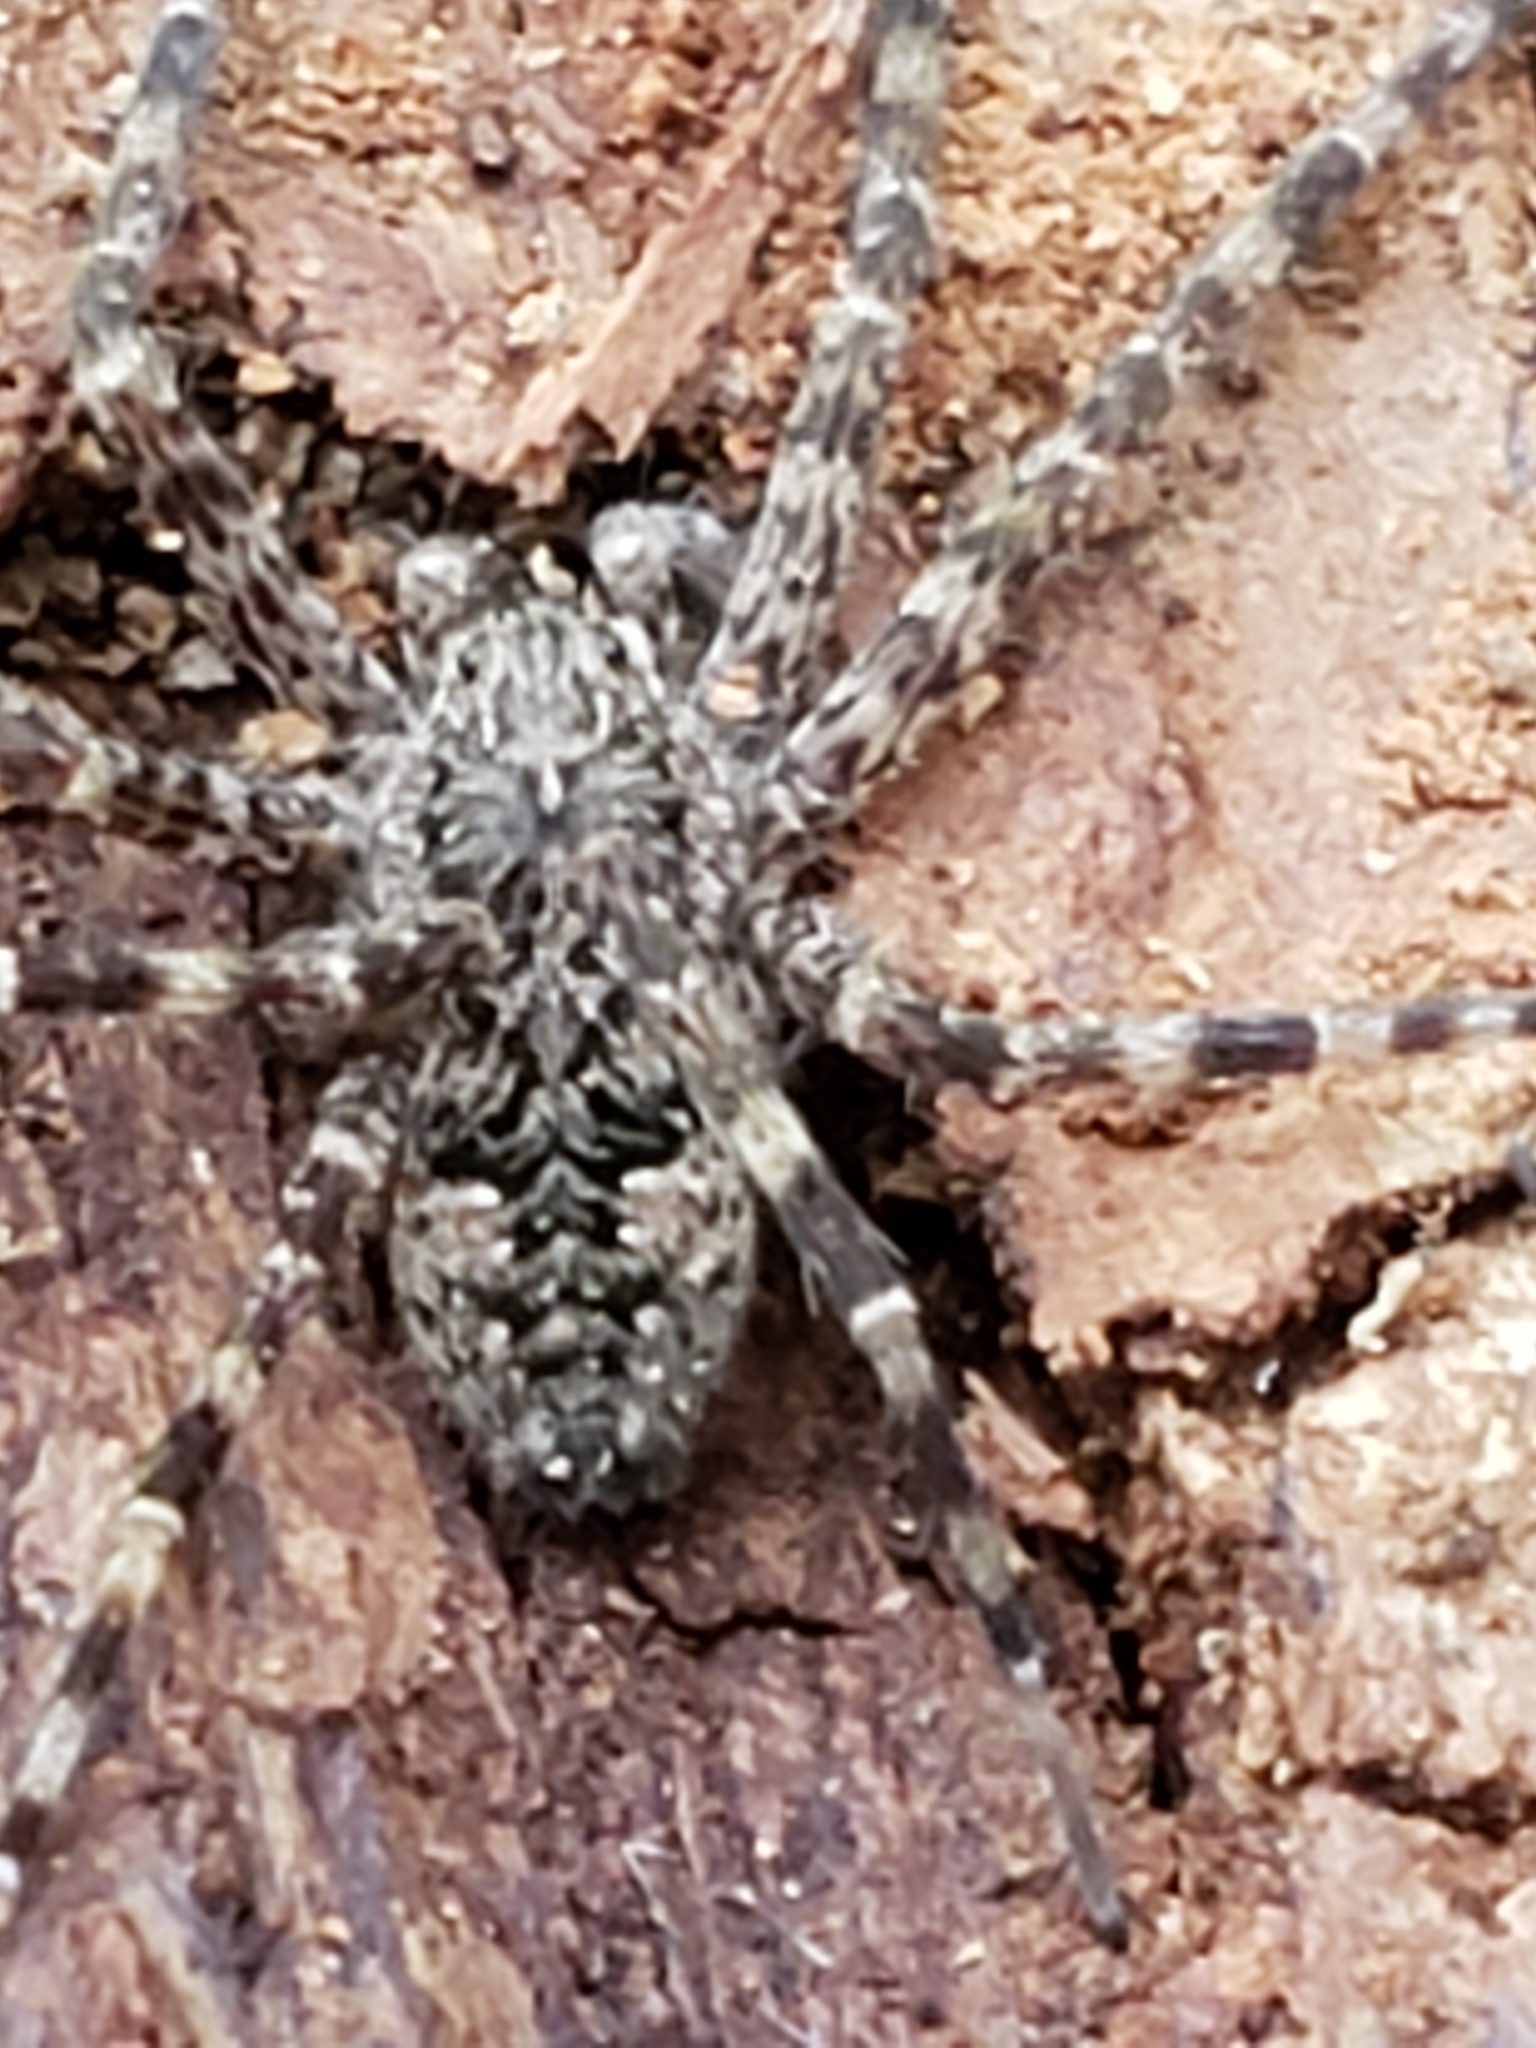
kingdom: Animalia
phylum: Arthropoda
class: Arachnida
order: Araneae
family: Pisauridae
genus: Dolomedes
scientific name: Dolomedes tenebrosus
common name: Dark fishing spider
